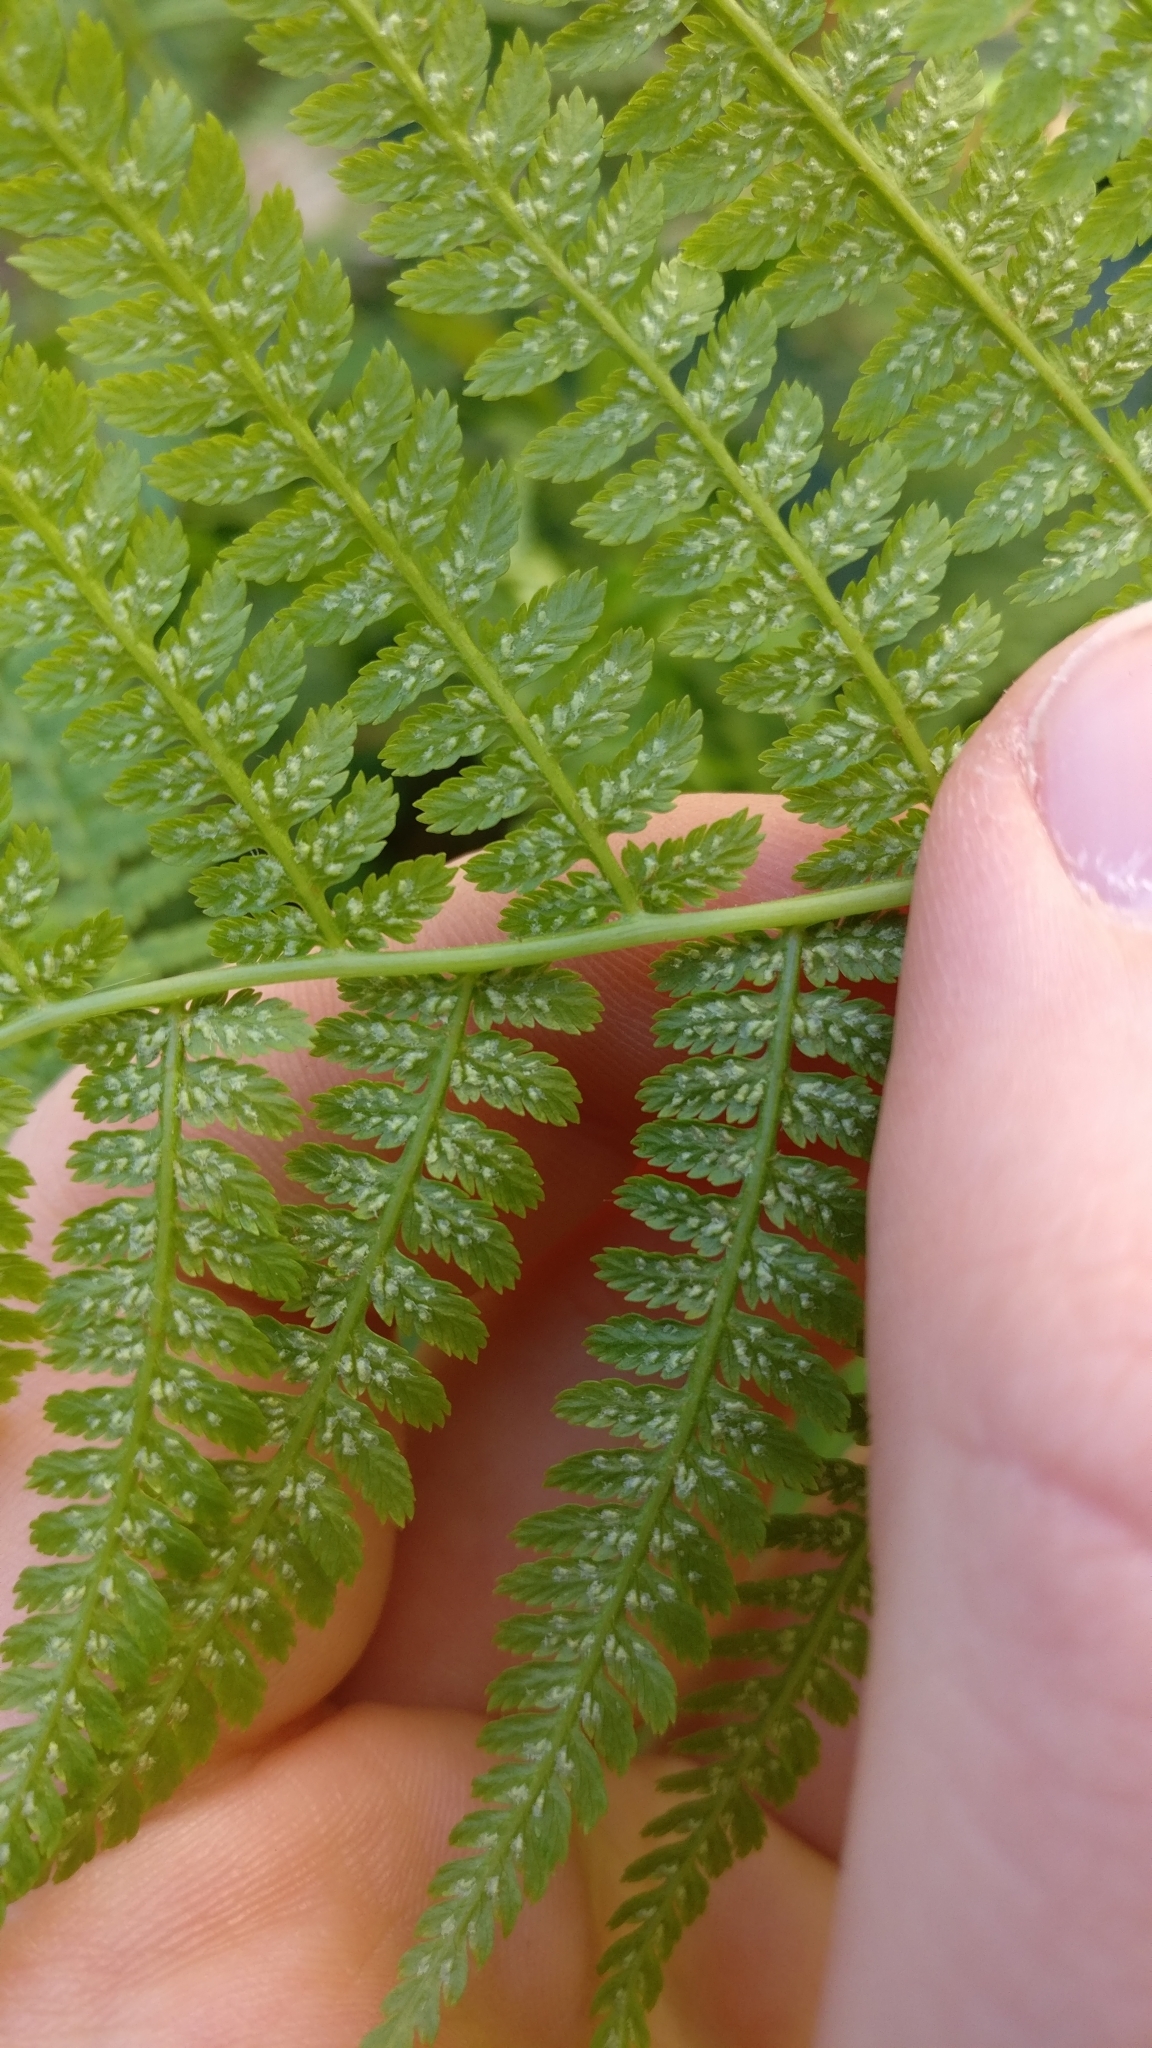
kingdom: Plantae
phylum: Tracheophyta
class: Polypodiopsida
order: Polypodiales
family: Athyriaceae
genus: Athyrium
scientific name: Athyrium filix-femina
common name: Lady fern
